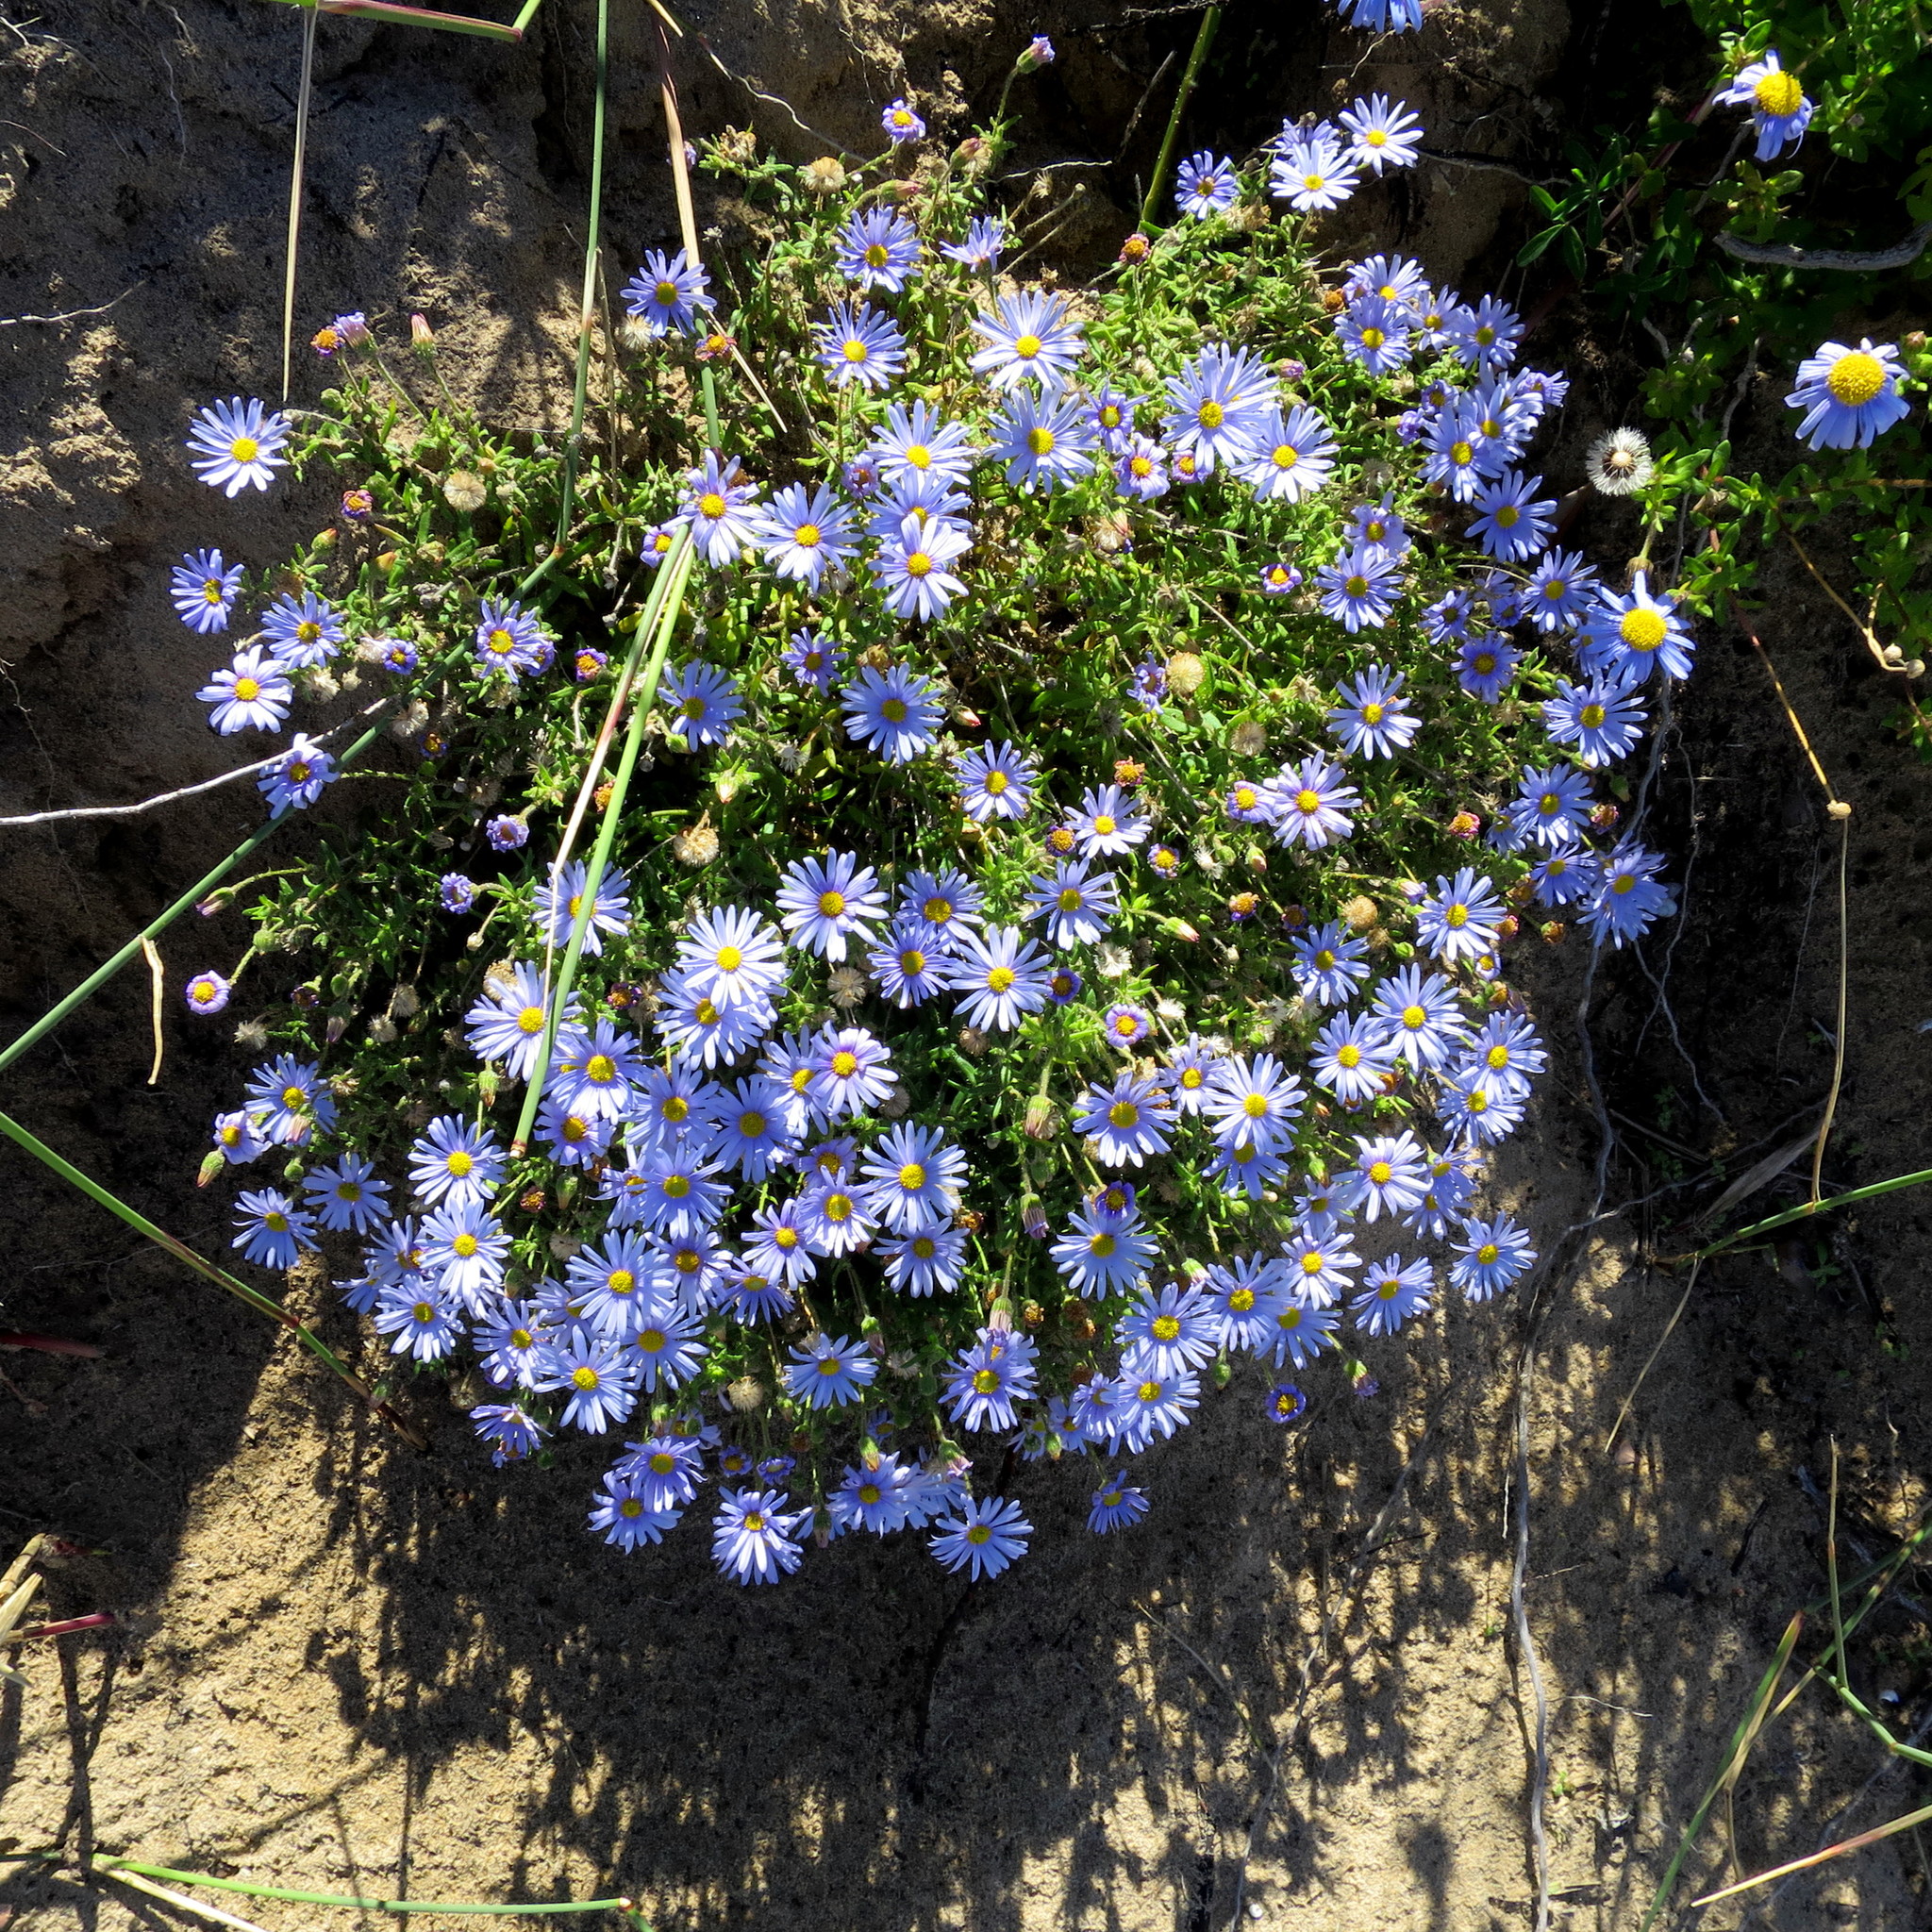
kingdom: Plantae
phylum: Tracheophyta
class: Magnoliopsida
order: Asterales
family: Asteraceae
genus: Felicia
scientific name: Felicia amoena
